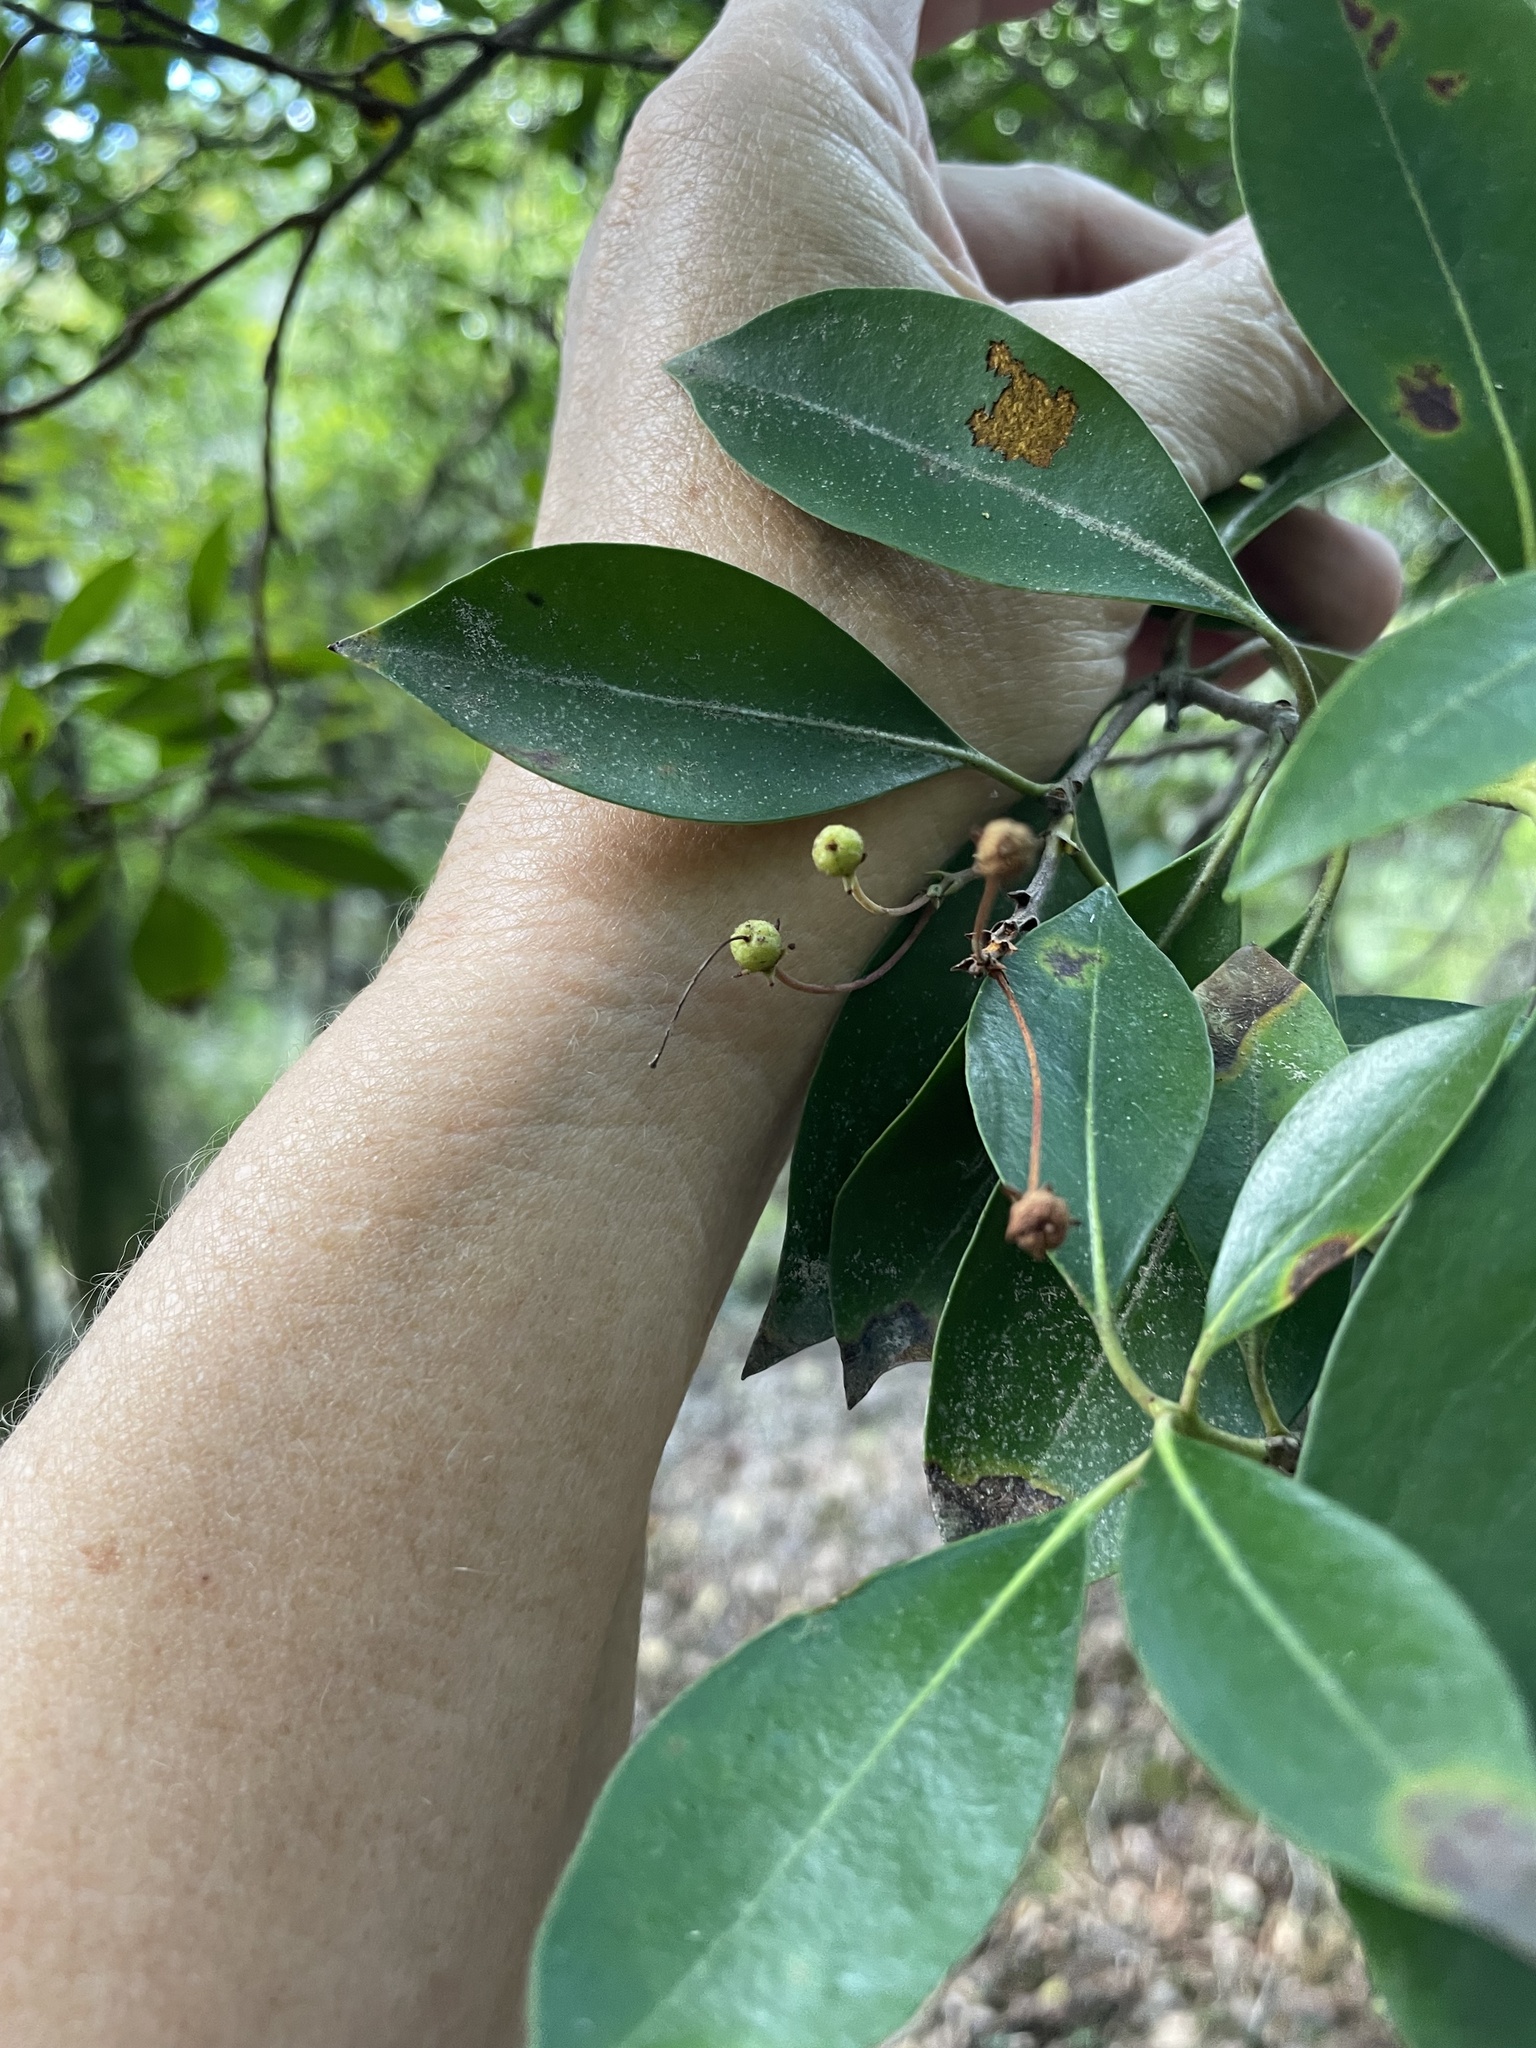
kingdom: Plantae
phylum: Tracheophyta
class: Magnoliopsida
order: Ericales
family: Ericaceae
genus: Kalmia
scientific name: Kalmia latifolia
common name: Mountain-laurel
